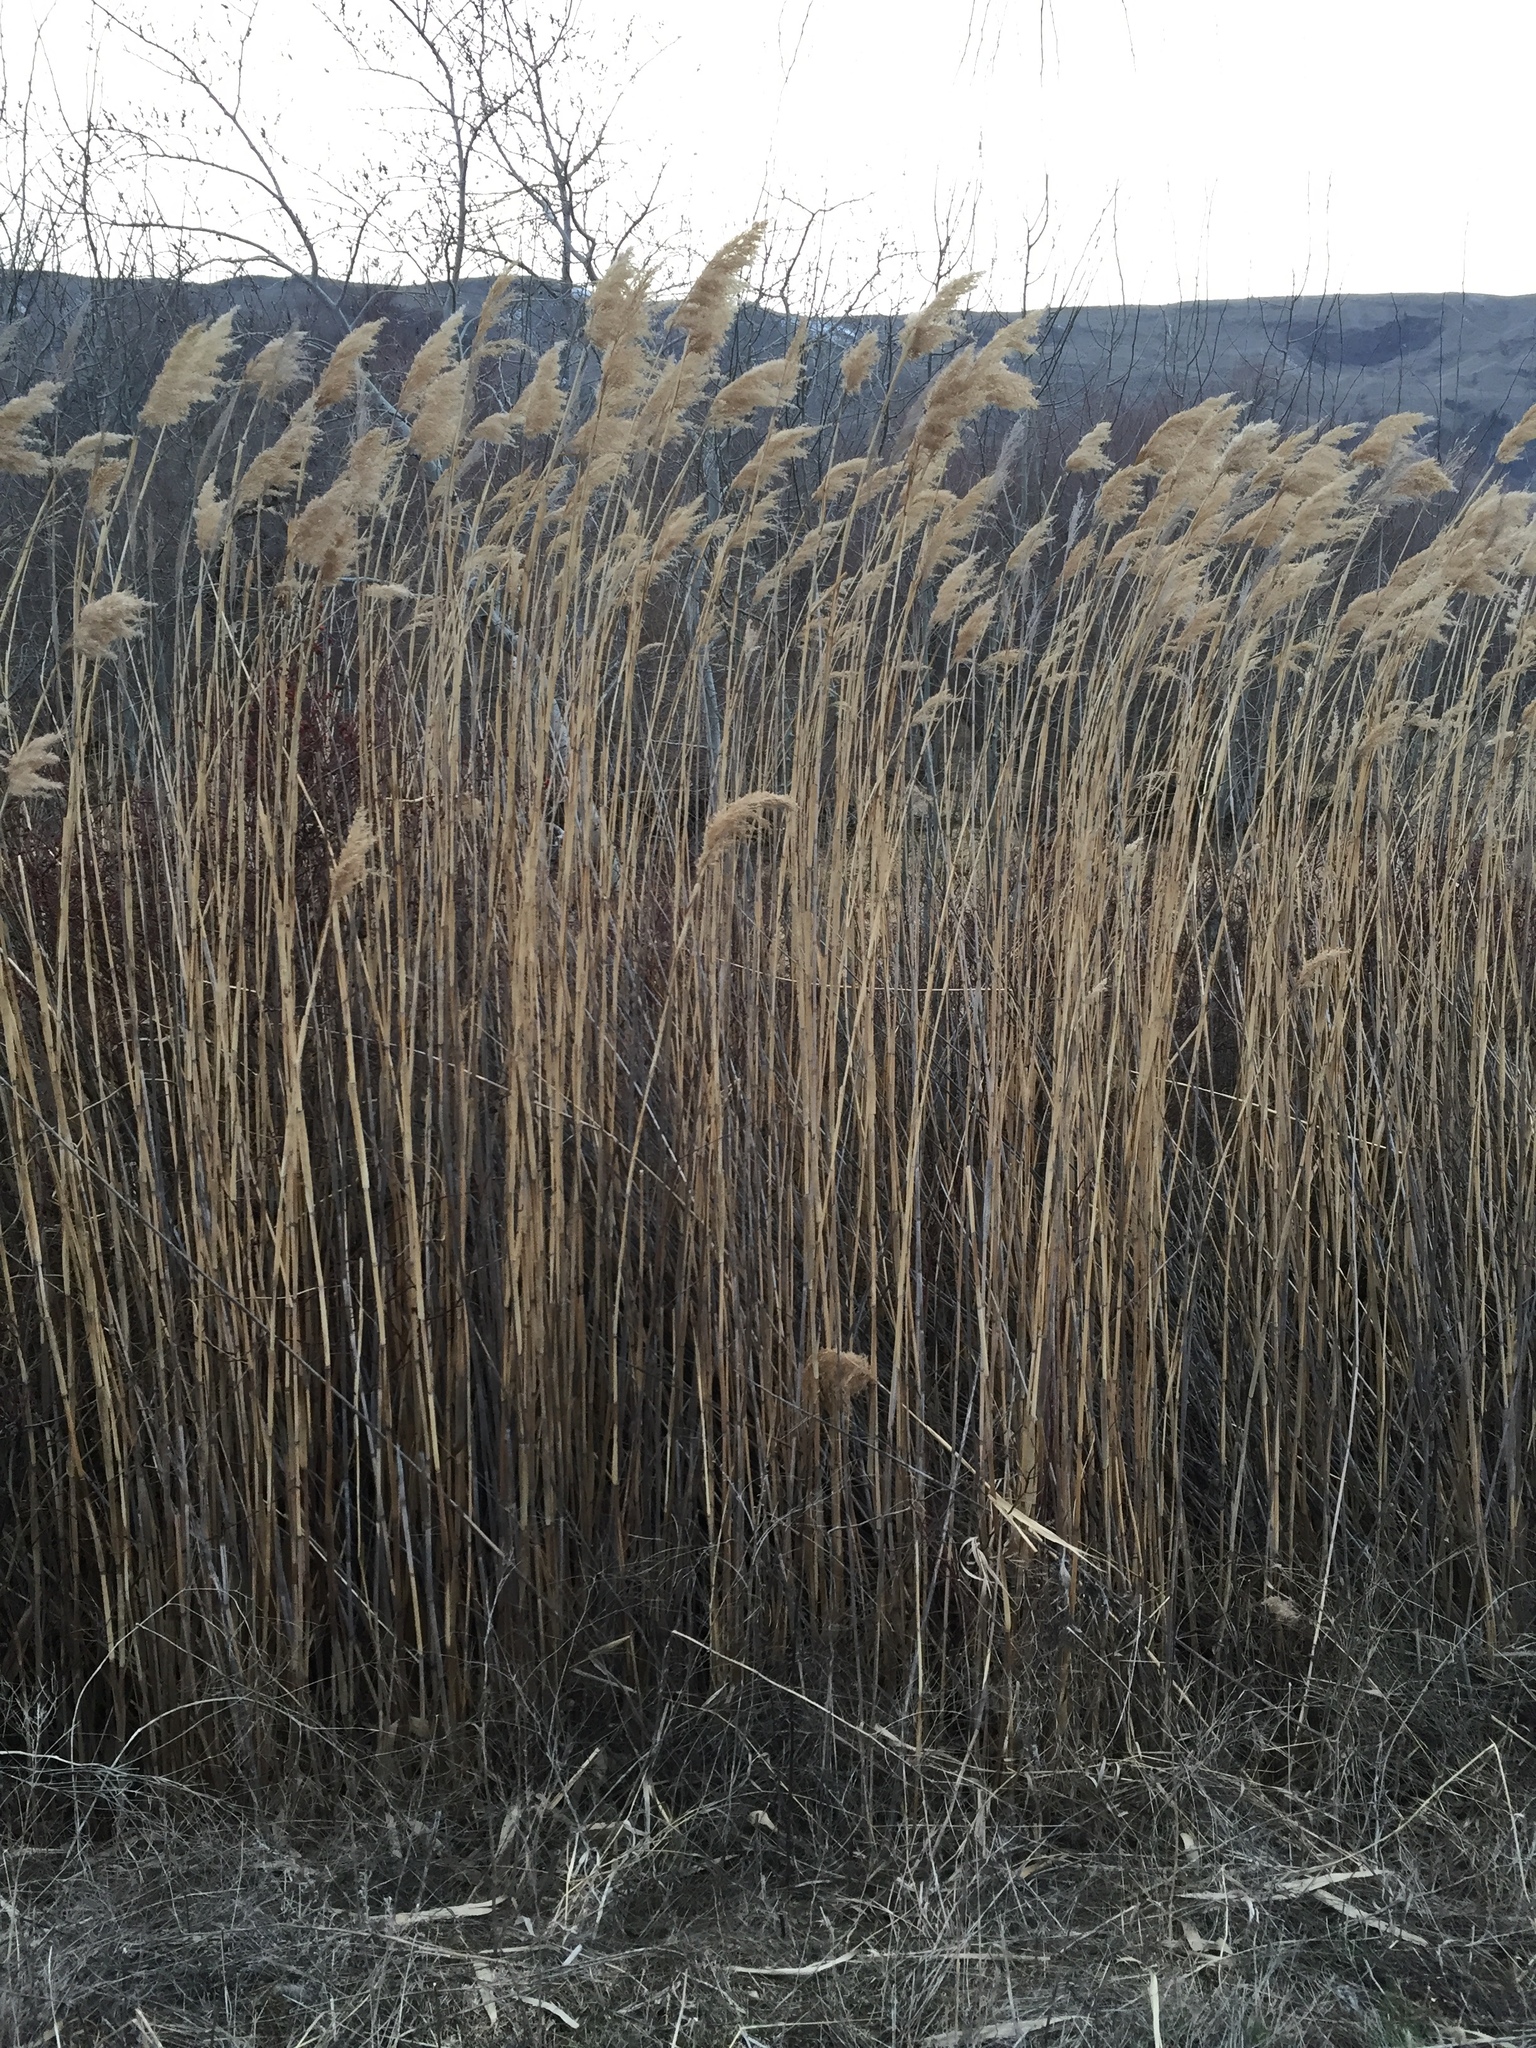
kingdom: Plantae
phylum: Tracheophyta
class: Liliopsida
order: Poales
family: Poaceae
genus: Phragmites
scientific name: Phragmites australis
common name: Common reed
